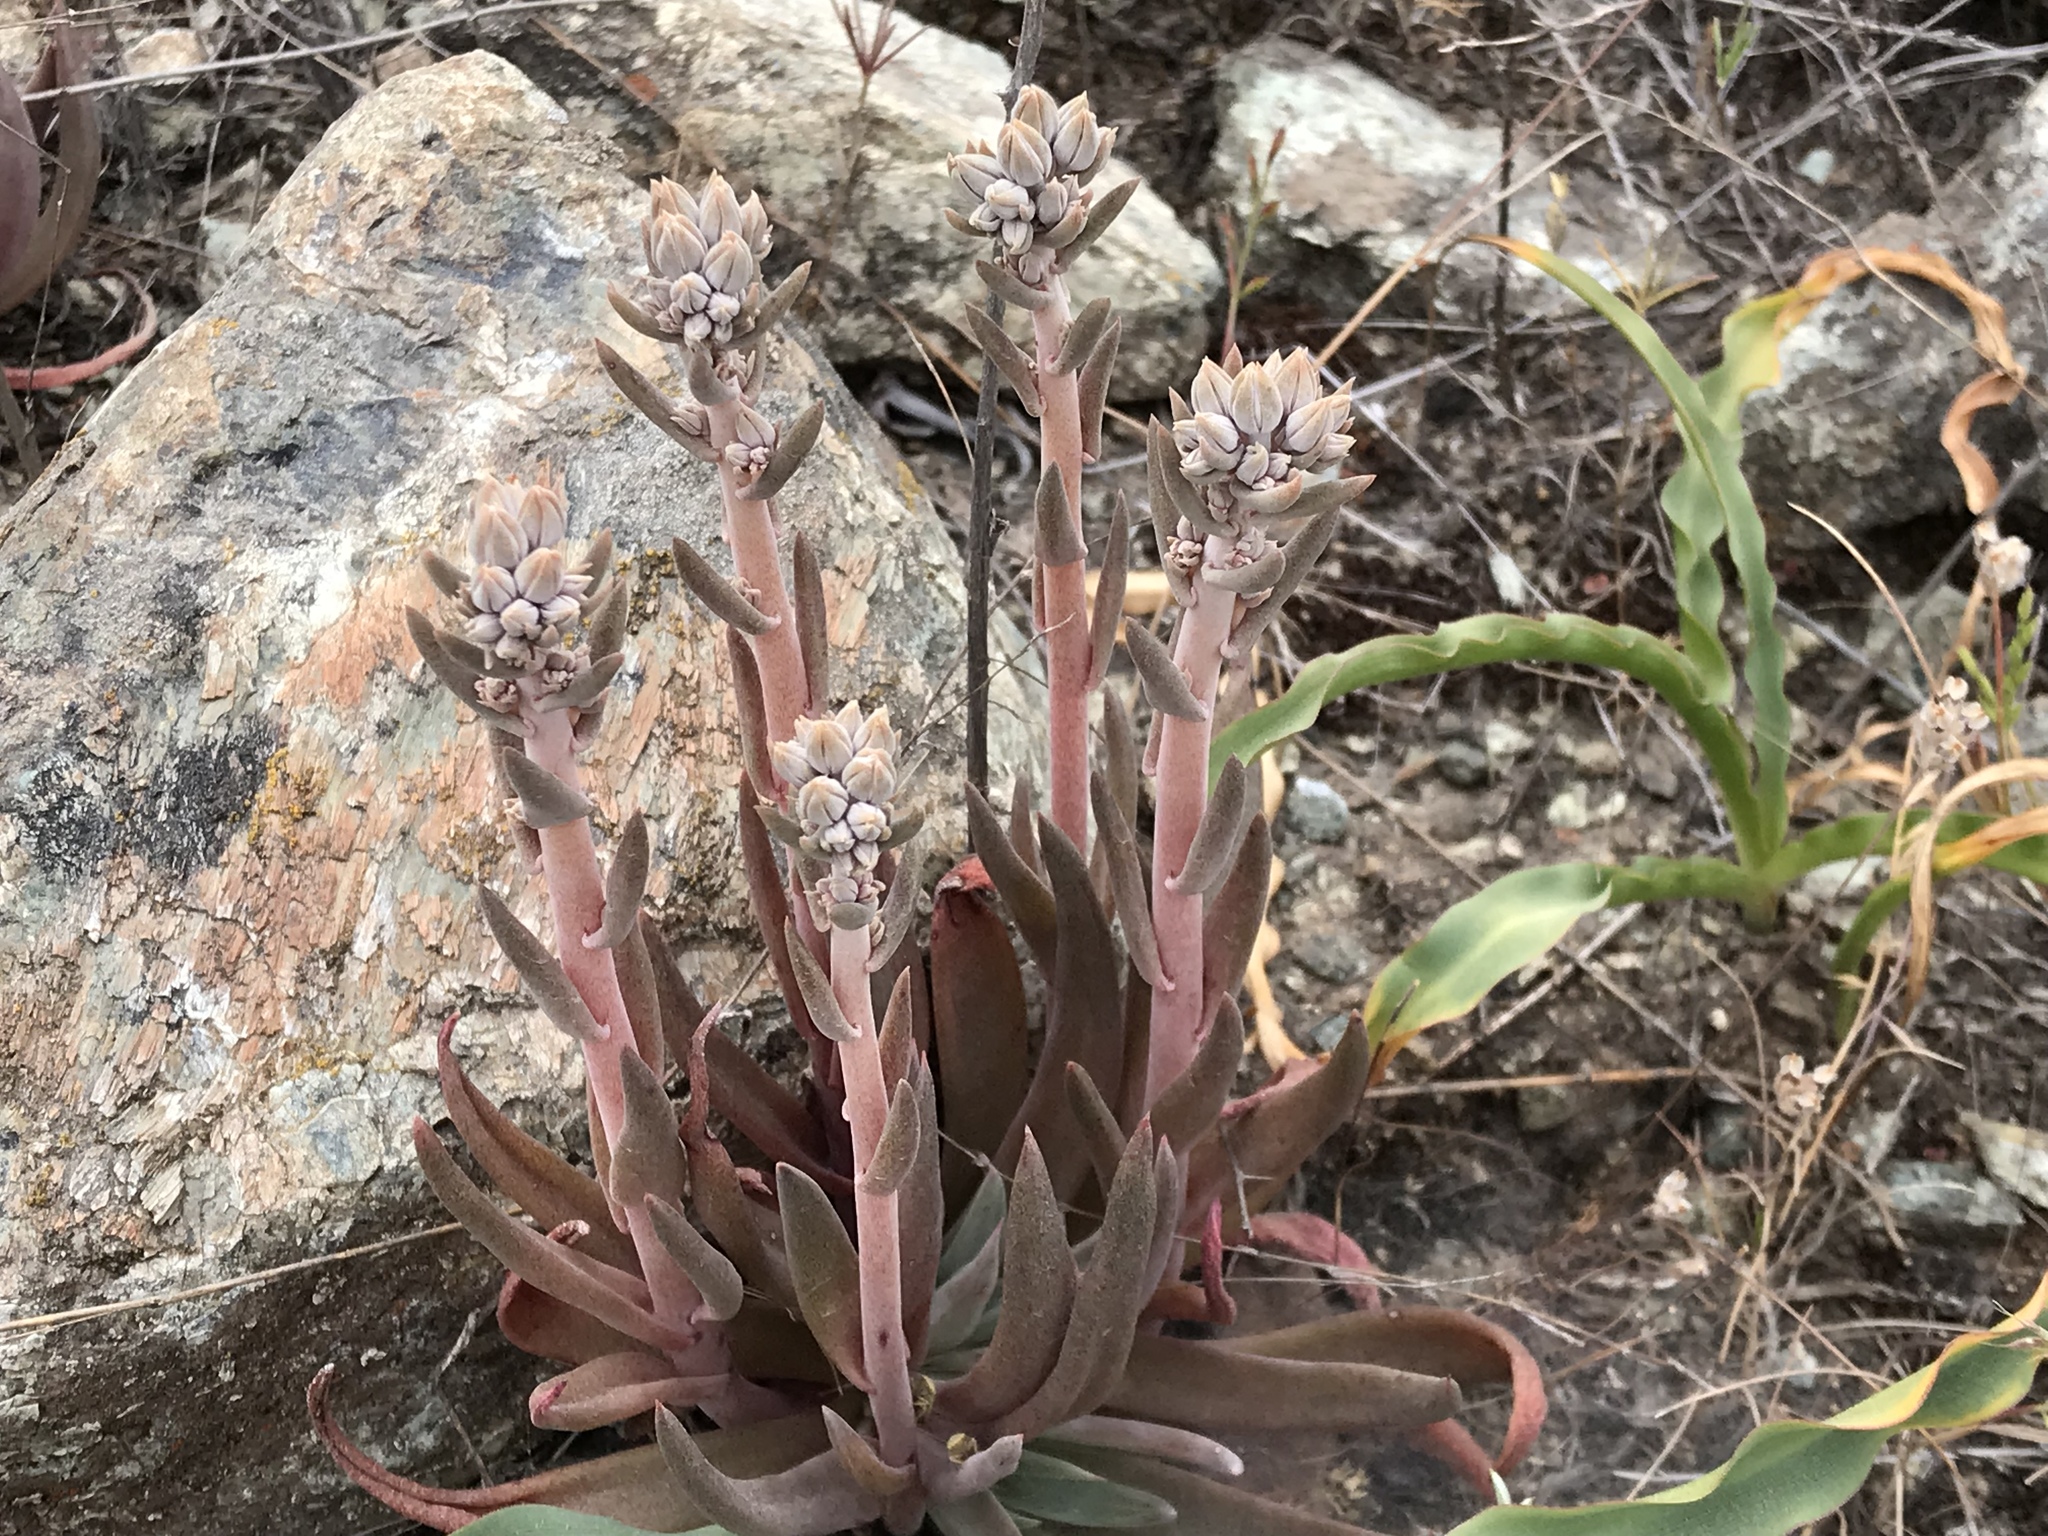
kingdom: Plantae
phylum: Tracheophyta
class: Magnoliopsida
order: Saxifragales
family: Crassulaceae
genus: Dudleya
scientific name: Dudleya abramsii
